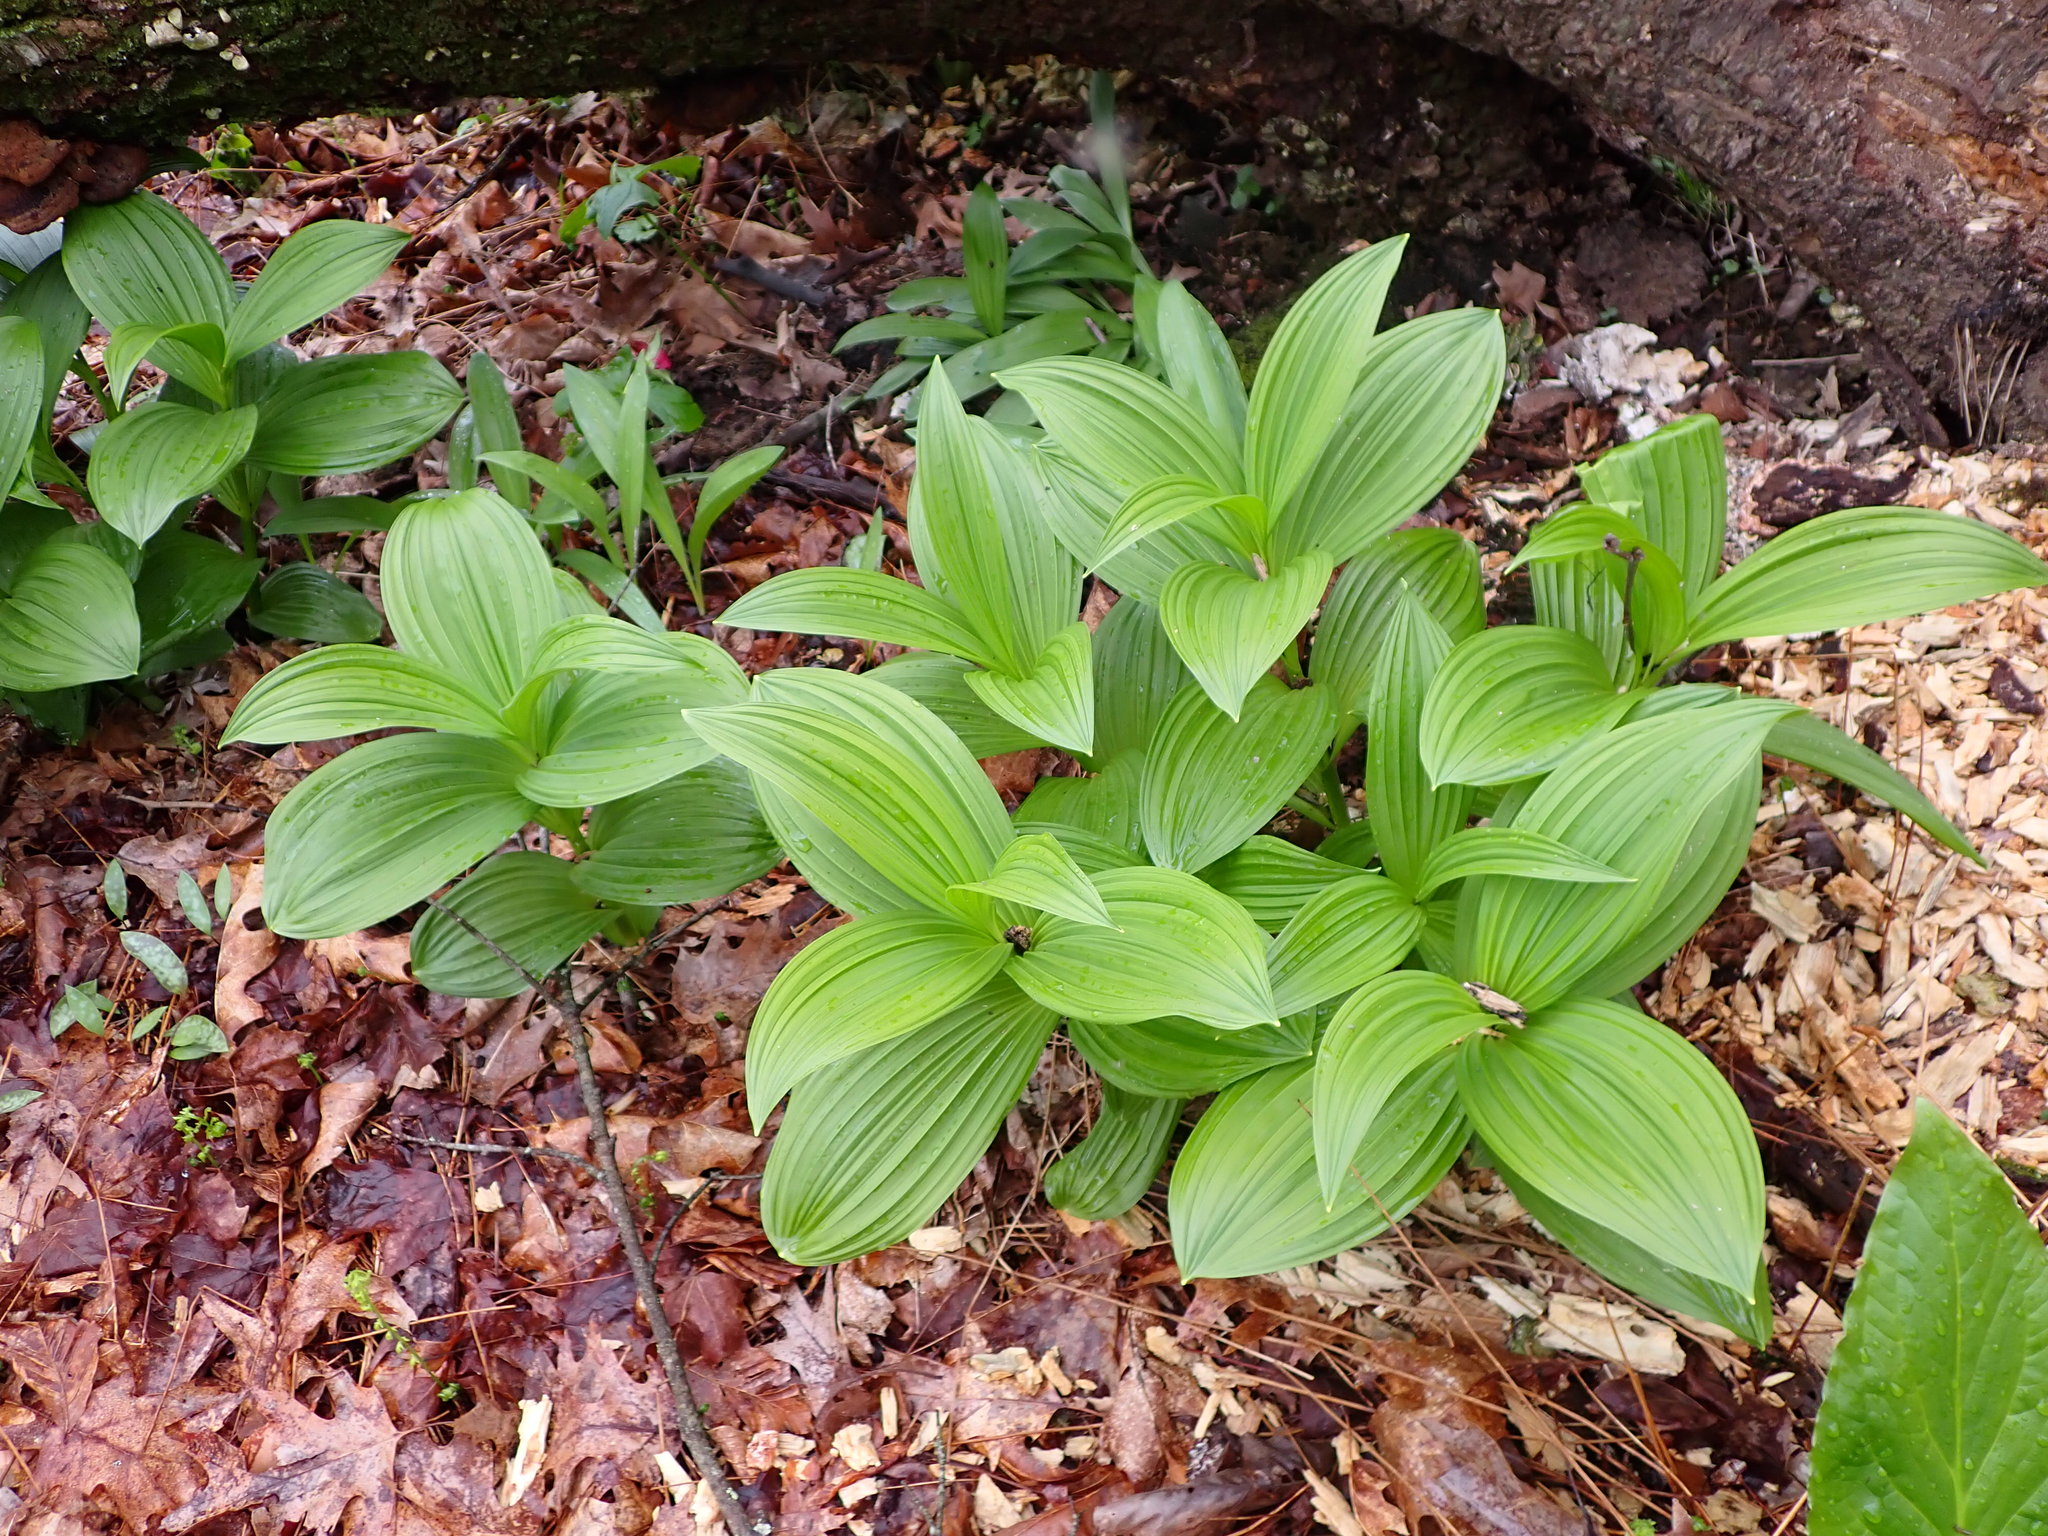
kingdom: Plantae
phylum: Tracheophyta
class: Liliopsida
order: Liliales
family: Melanthiaceae
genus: Veratrum
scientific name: Veratrum viride
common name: American false hellebore
